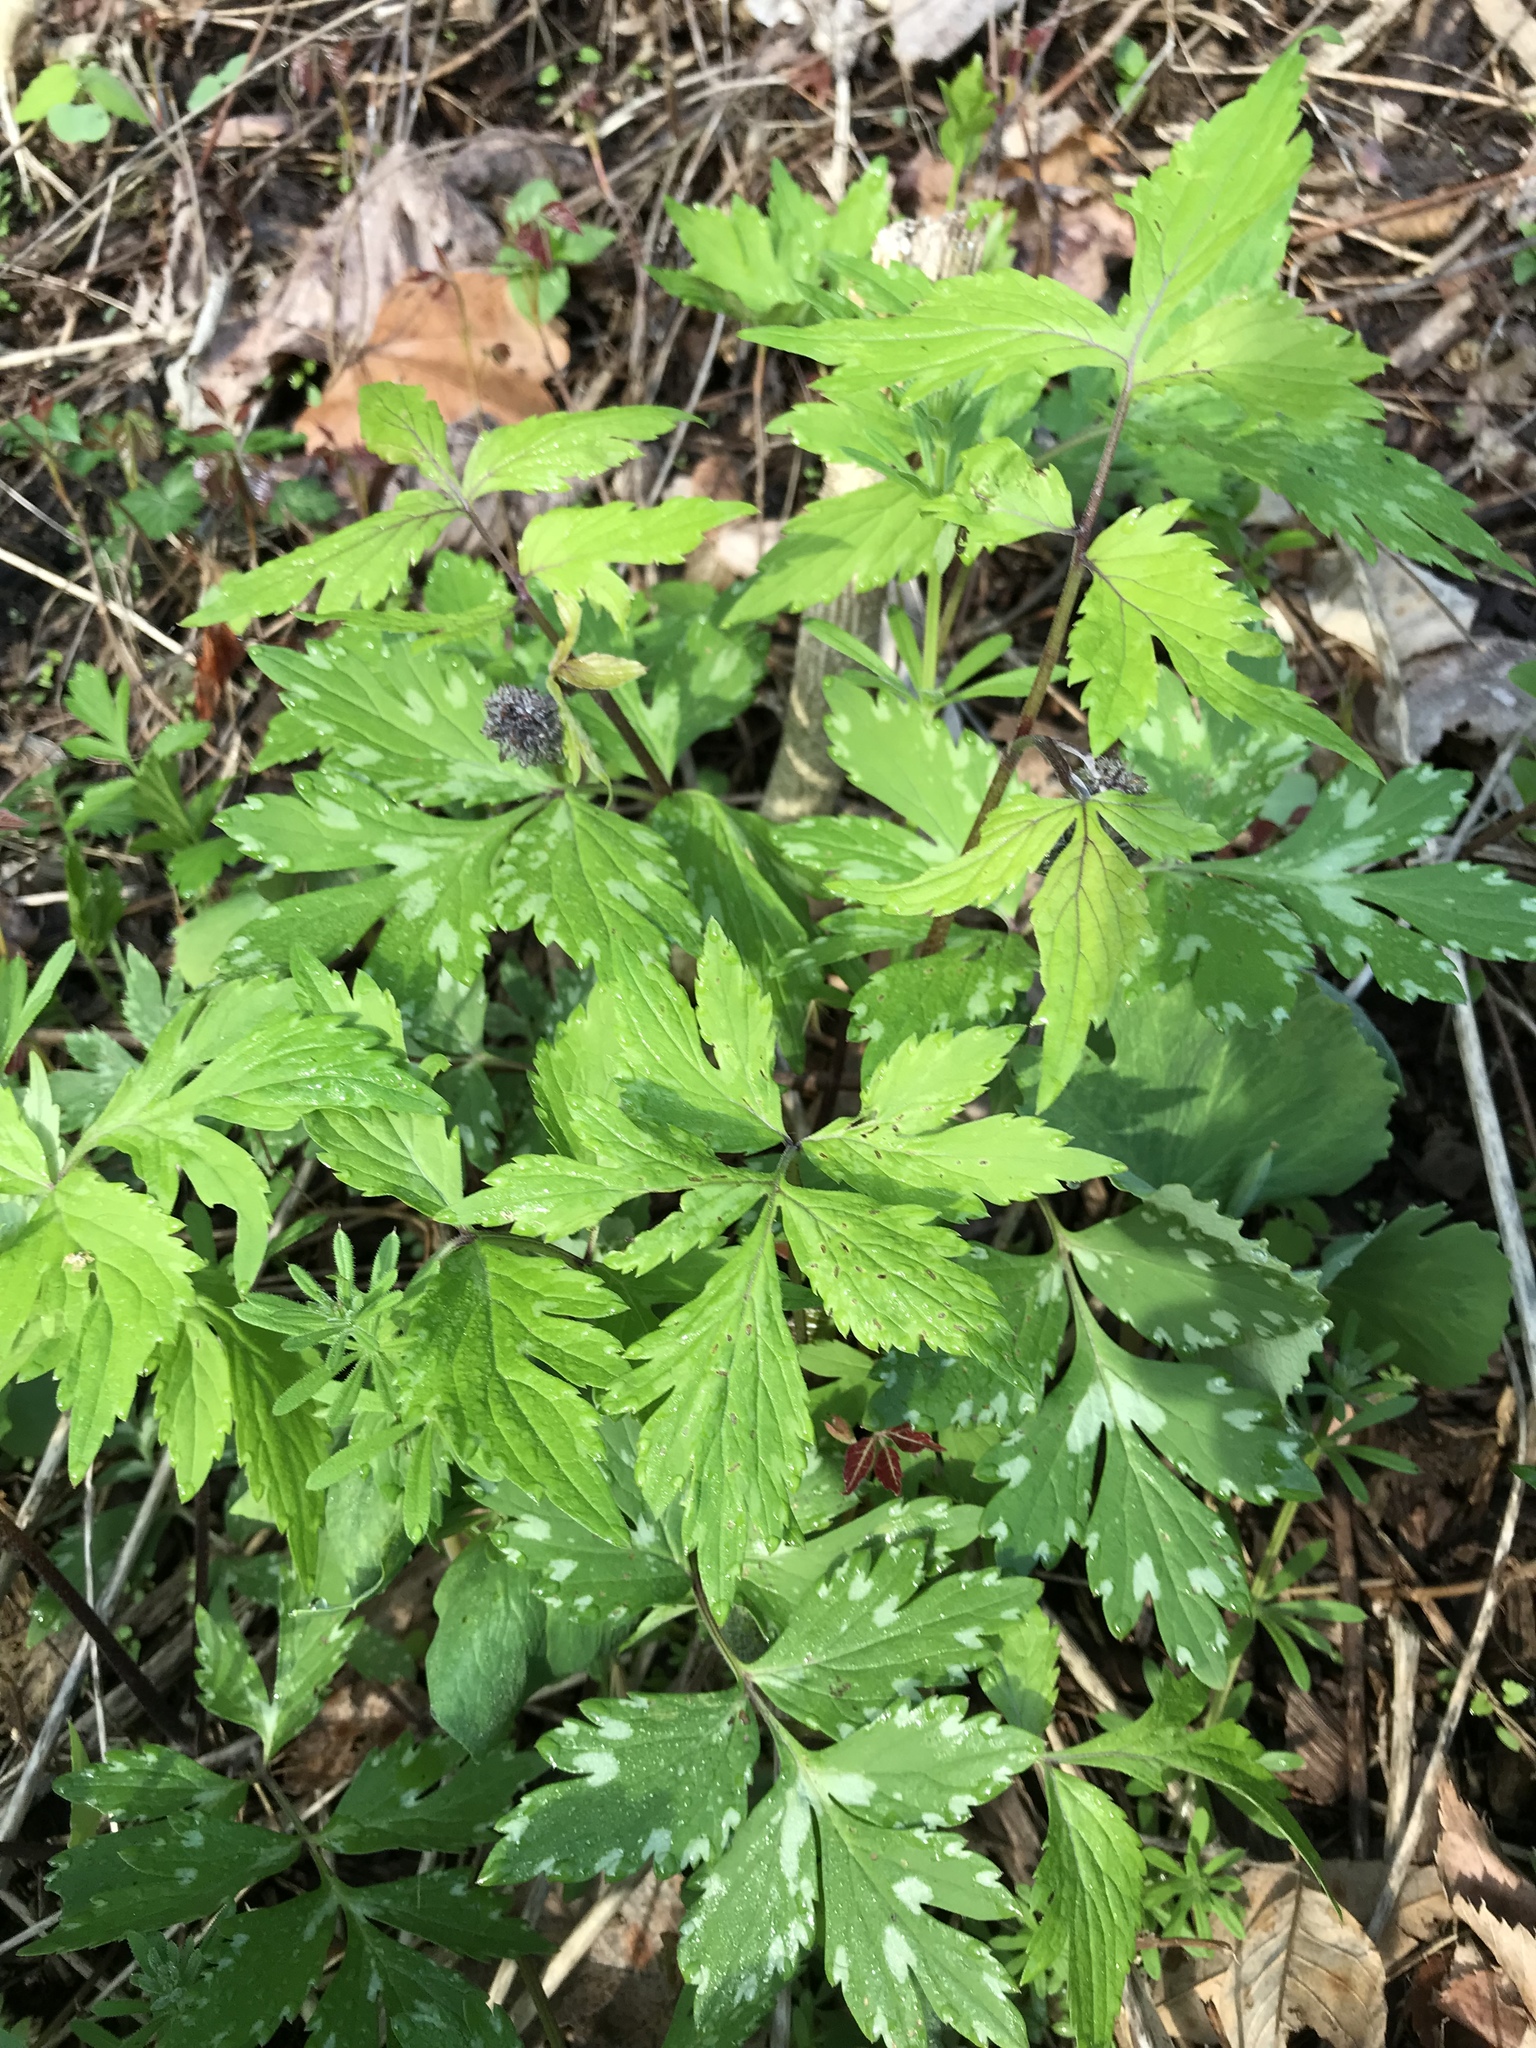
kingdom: Plantae
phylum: Tracheophyta
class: Magnoliopsida
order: Boraginales
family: Hydrophyllaceae
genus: Hydrophyllum
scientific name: Hydrophyllum virginianum
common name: Virginia waterleaf
